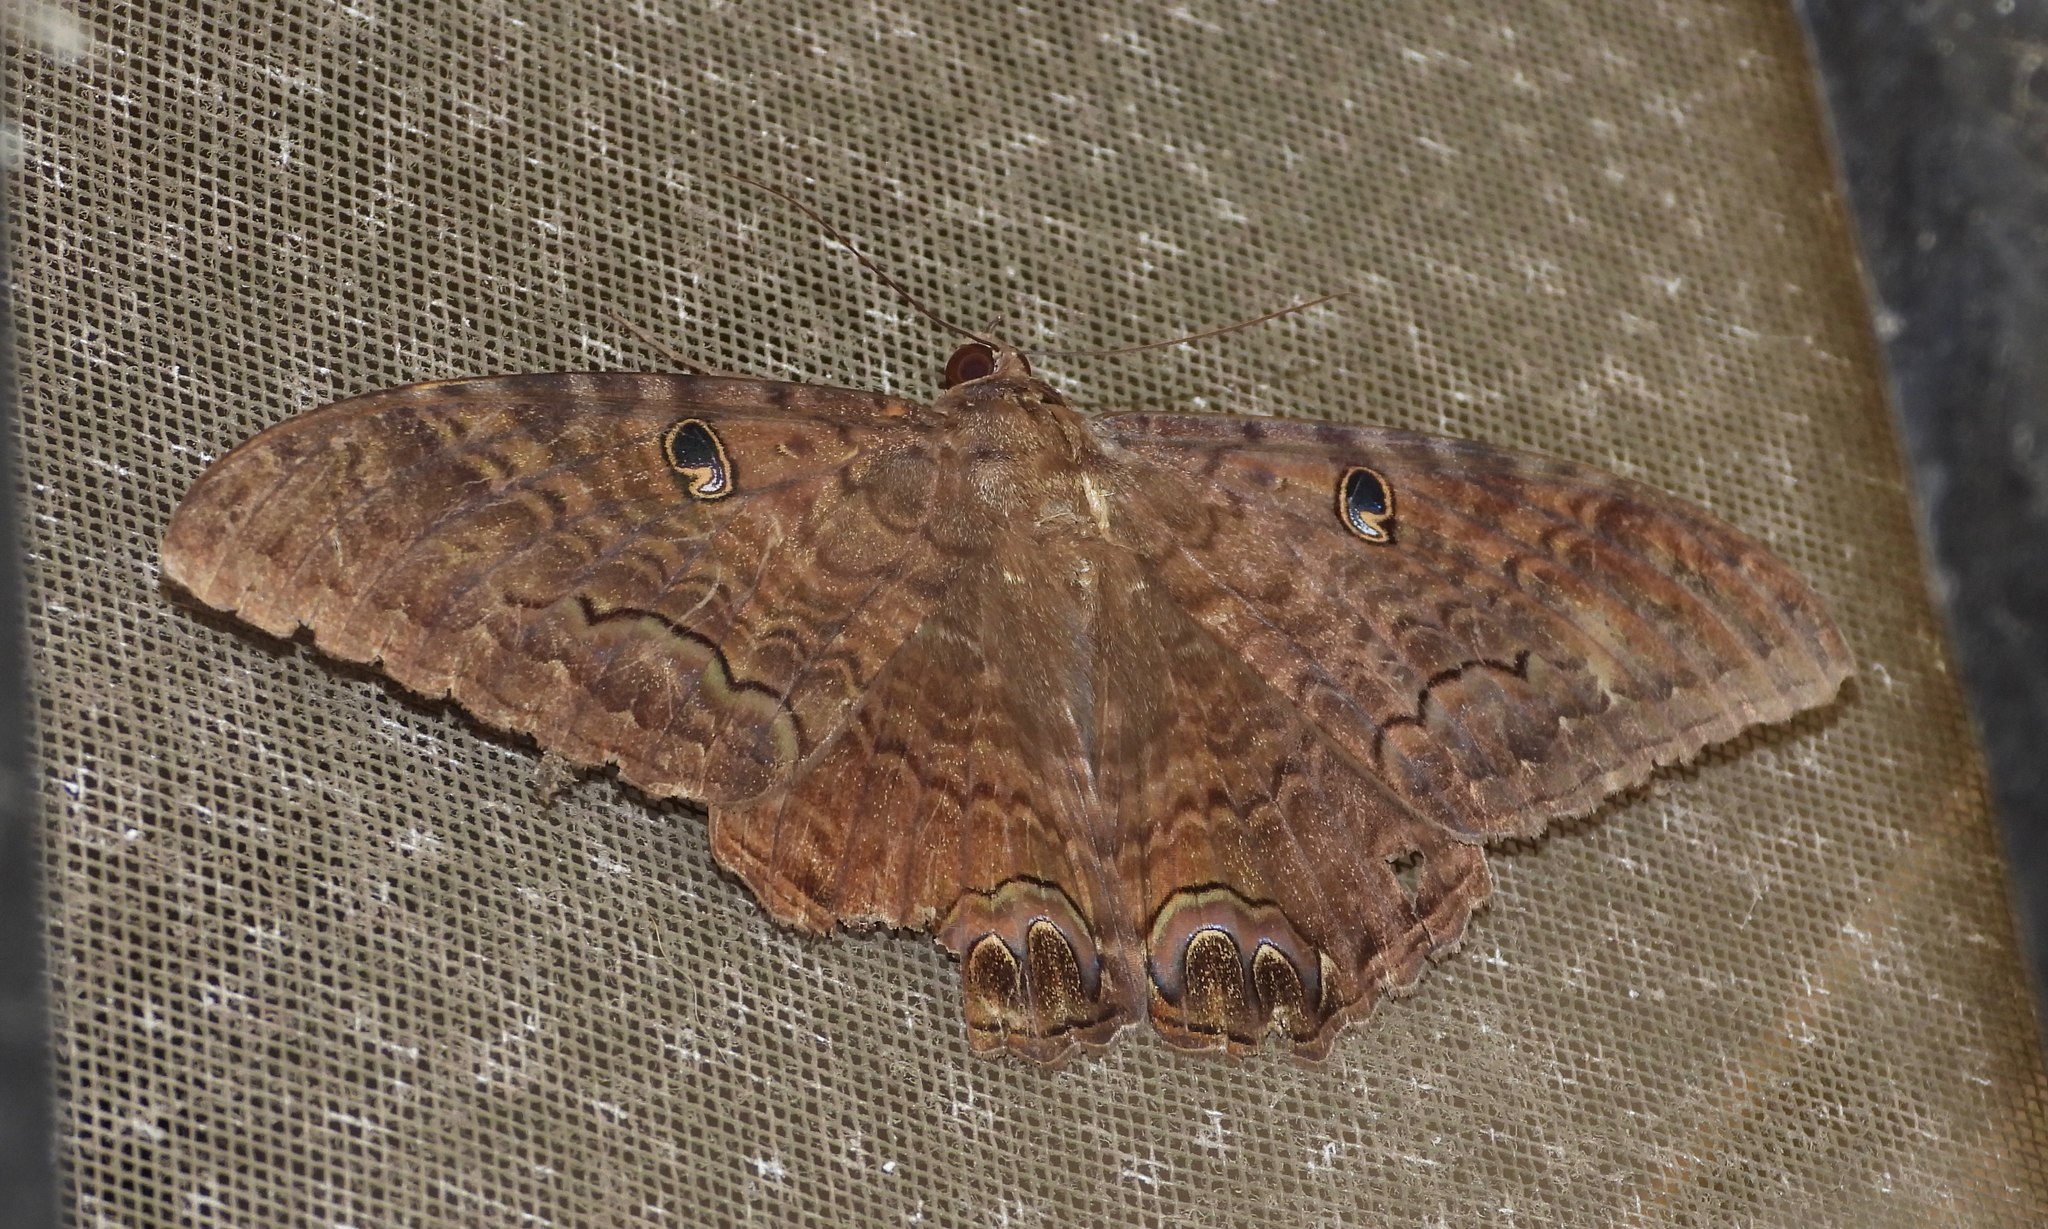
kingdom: Animalia
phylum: Arthropoda
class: Insecta
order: Lepidoptera
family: Erebidae
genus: Ascalapha
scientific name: Ascalapha odorata
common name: Black witch
